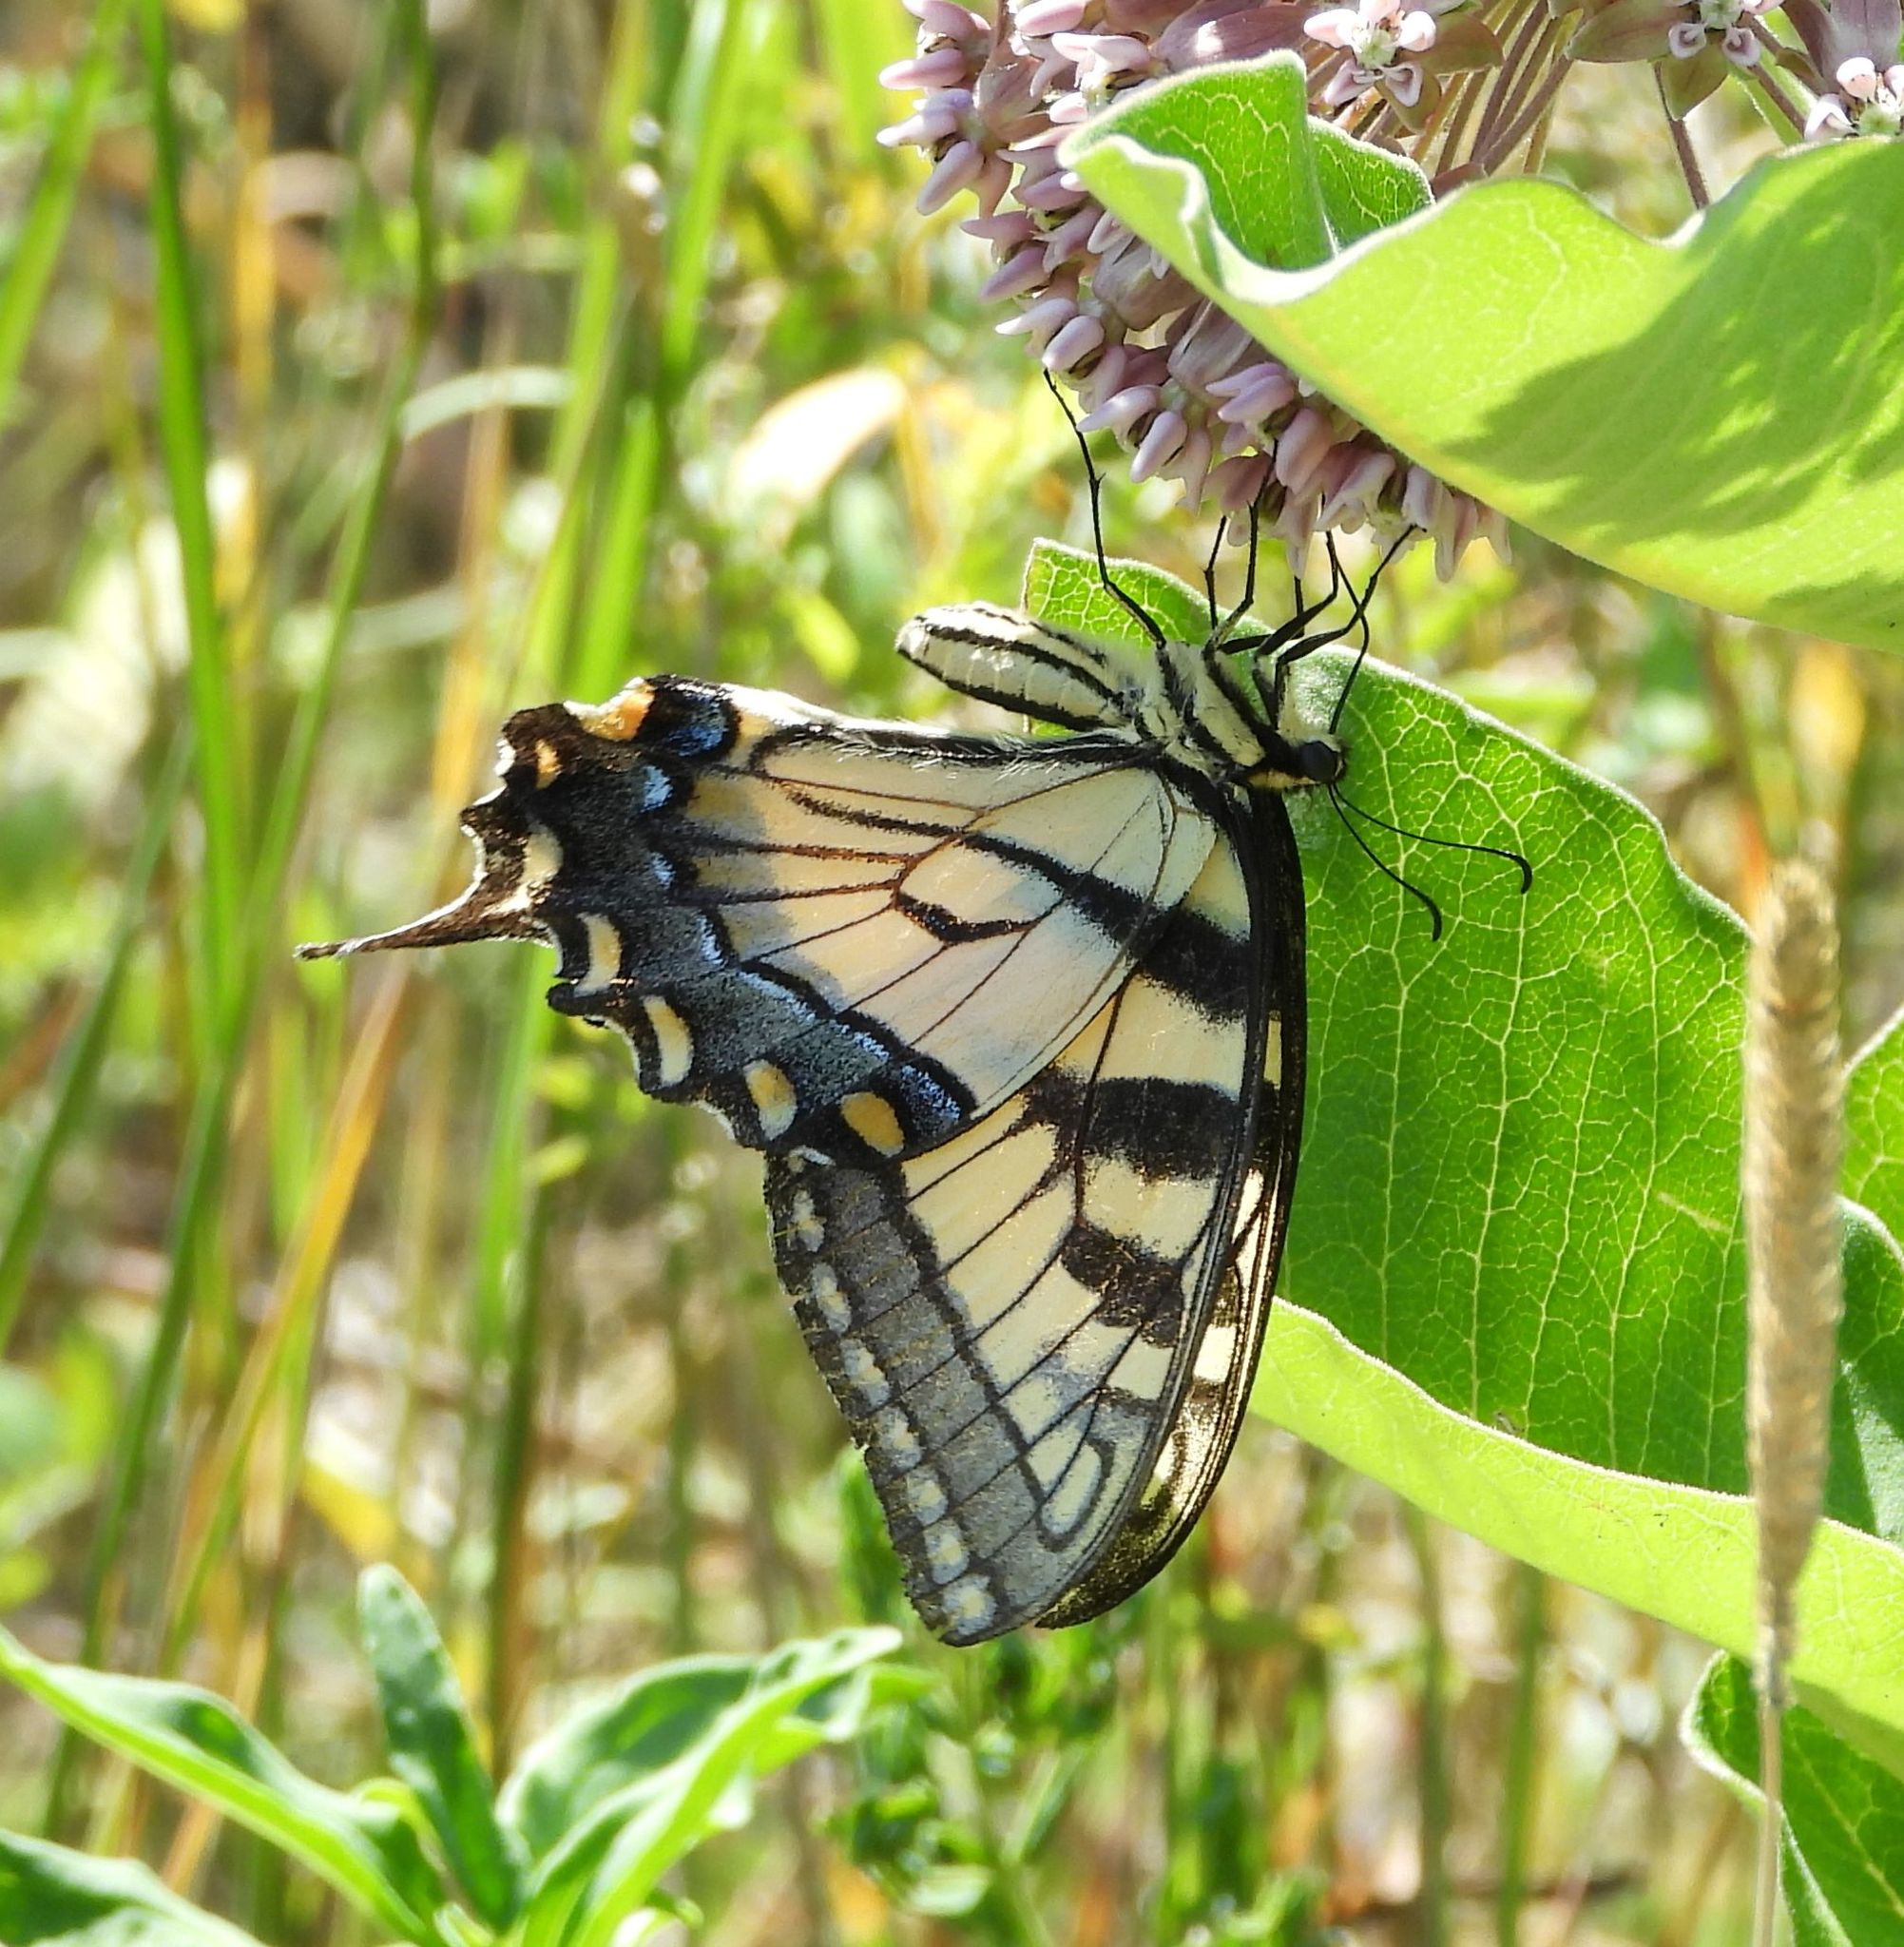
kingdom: Animalia
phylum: Arthropoda
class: Insecta
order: Lepidoptera
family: Papilionidae
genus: Papilio
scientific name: Papilio
